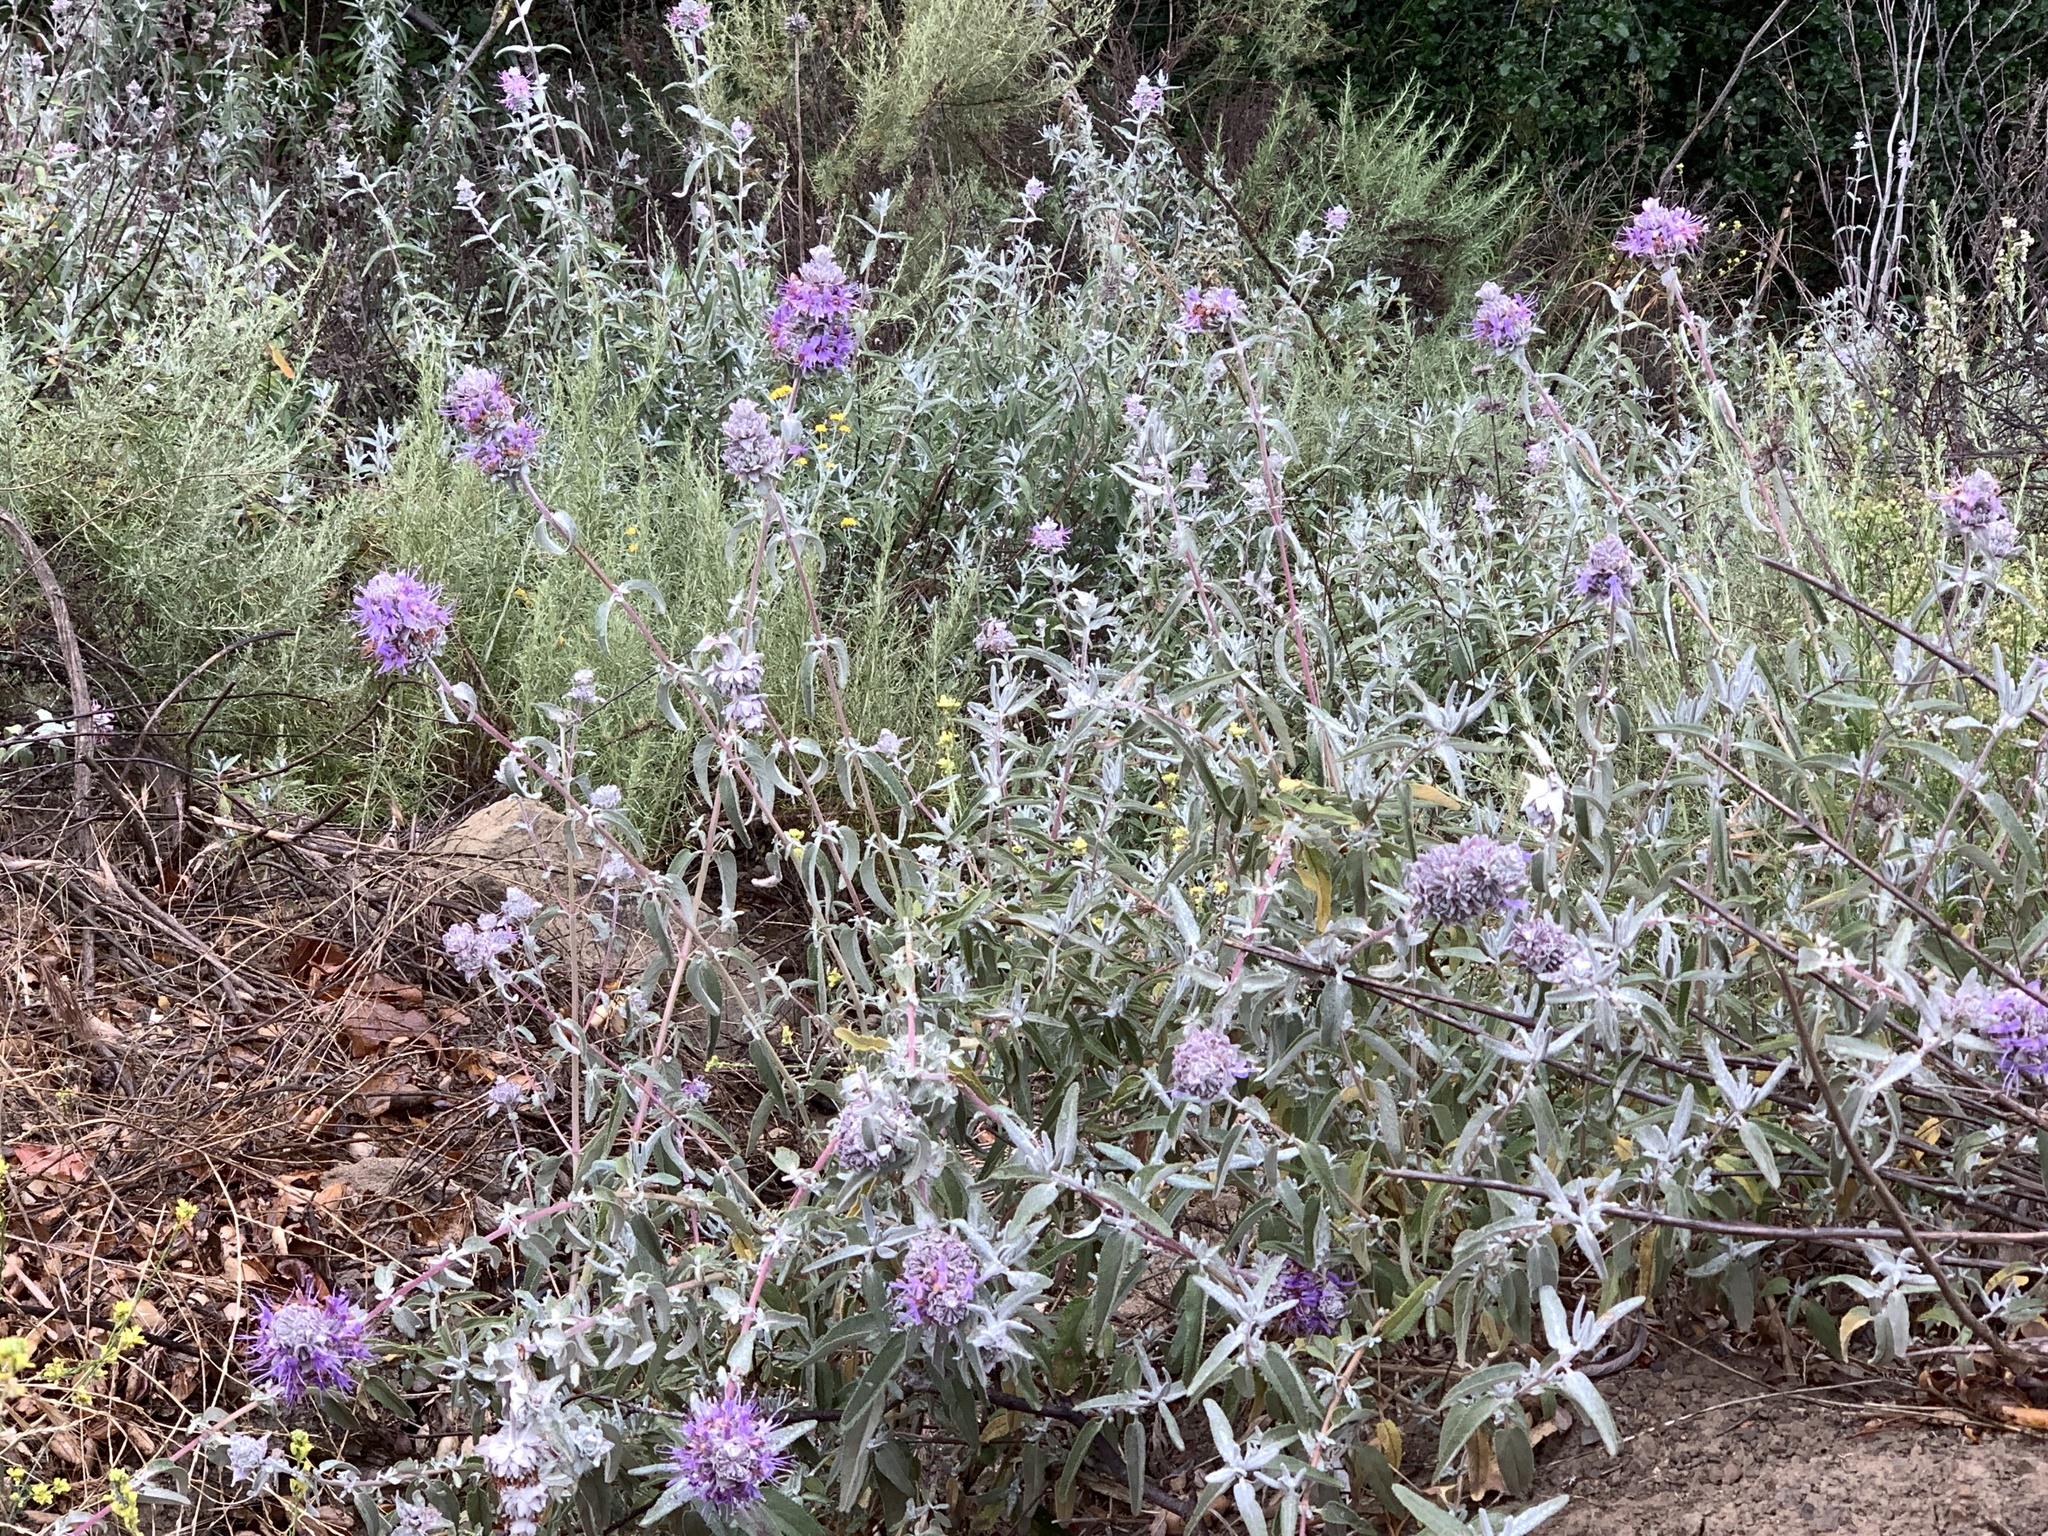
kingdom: Plantae
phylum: Tracheophyta
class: Magnoliopsida
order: Lamiales
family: Lamiaceae
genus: Salvia
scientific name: Salvia leucophylla
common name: Purple sage
